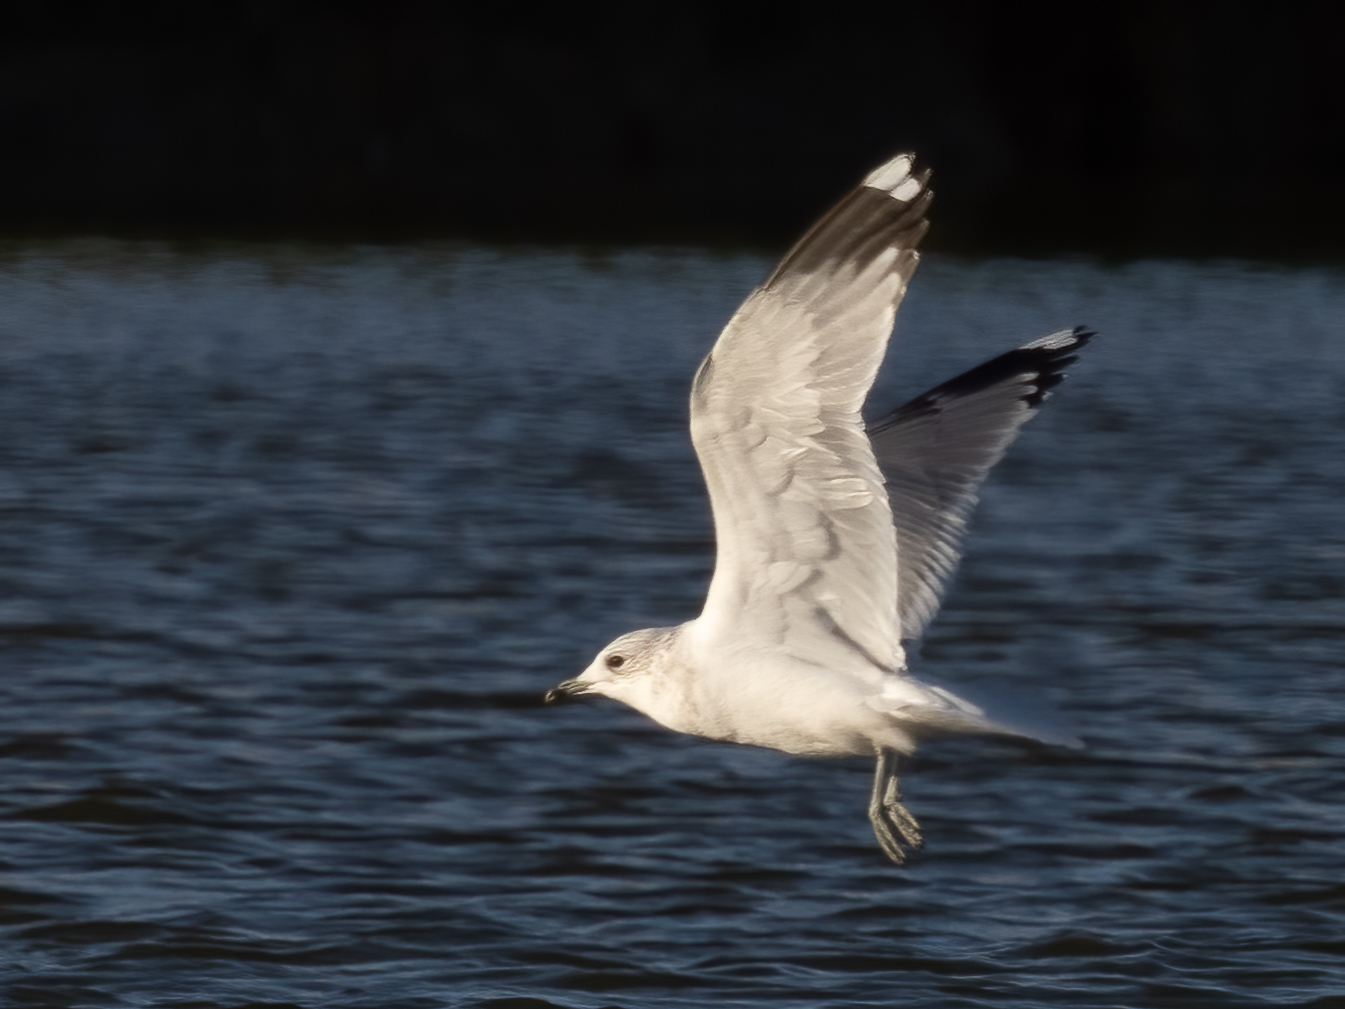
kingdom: Animalia
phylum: Chordata
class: Aves
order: Charadriiformes
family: Laridae
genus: Larus
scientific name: Larus canus
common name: Mew gull
